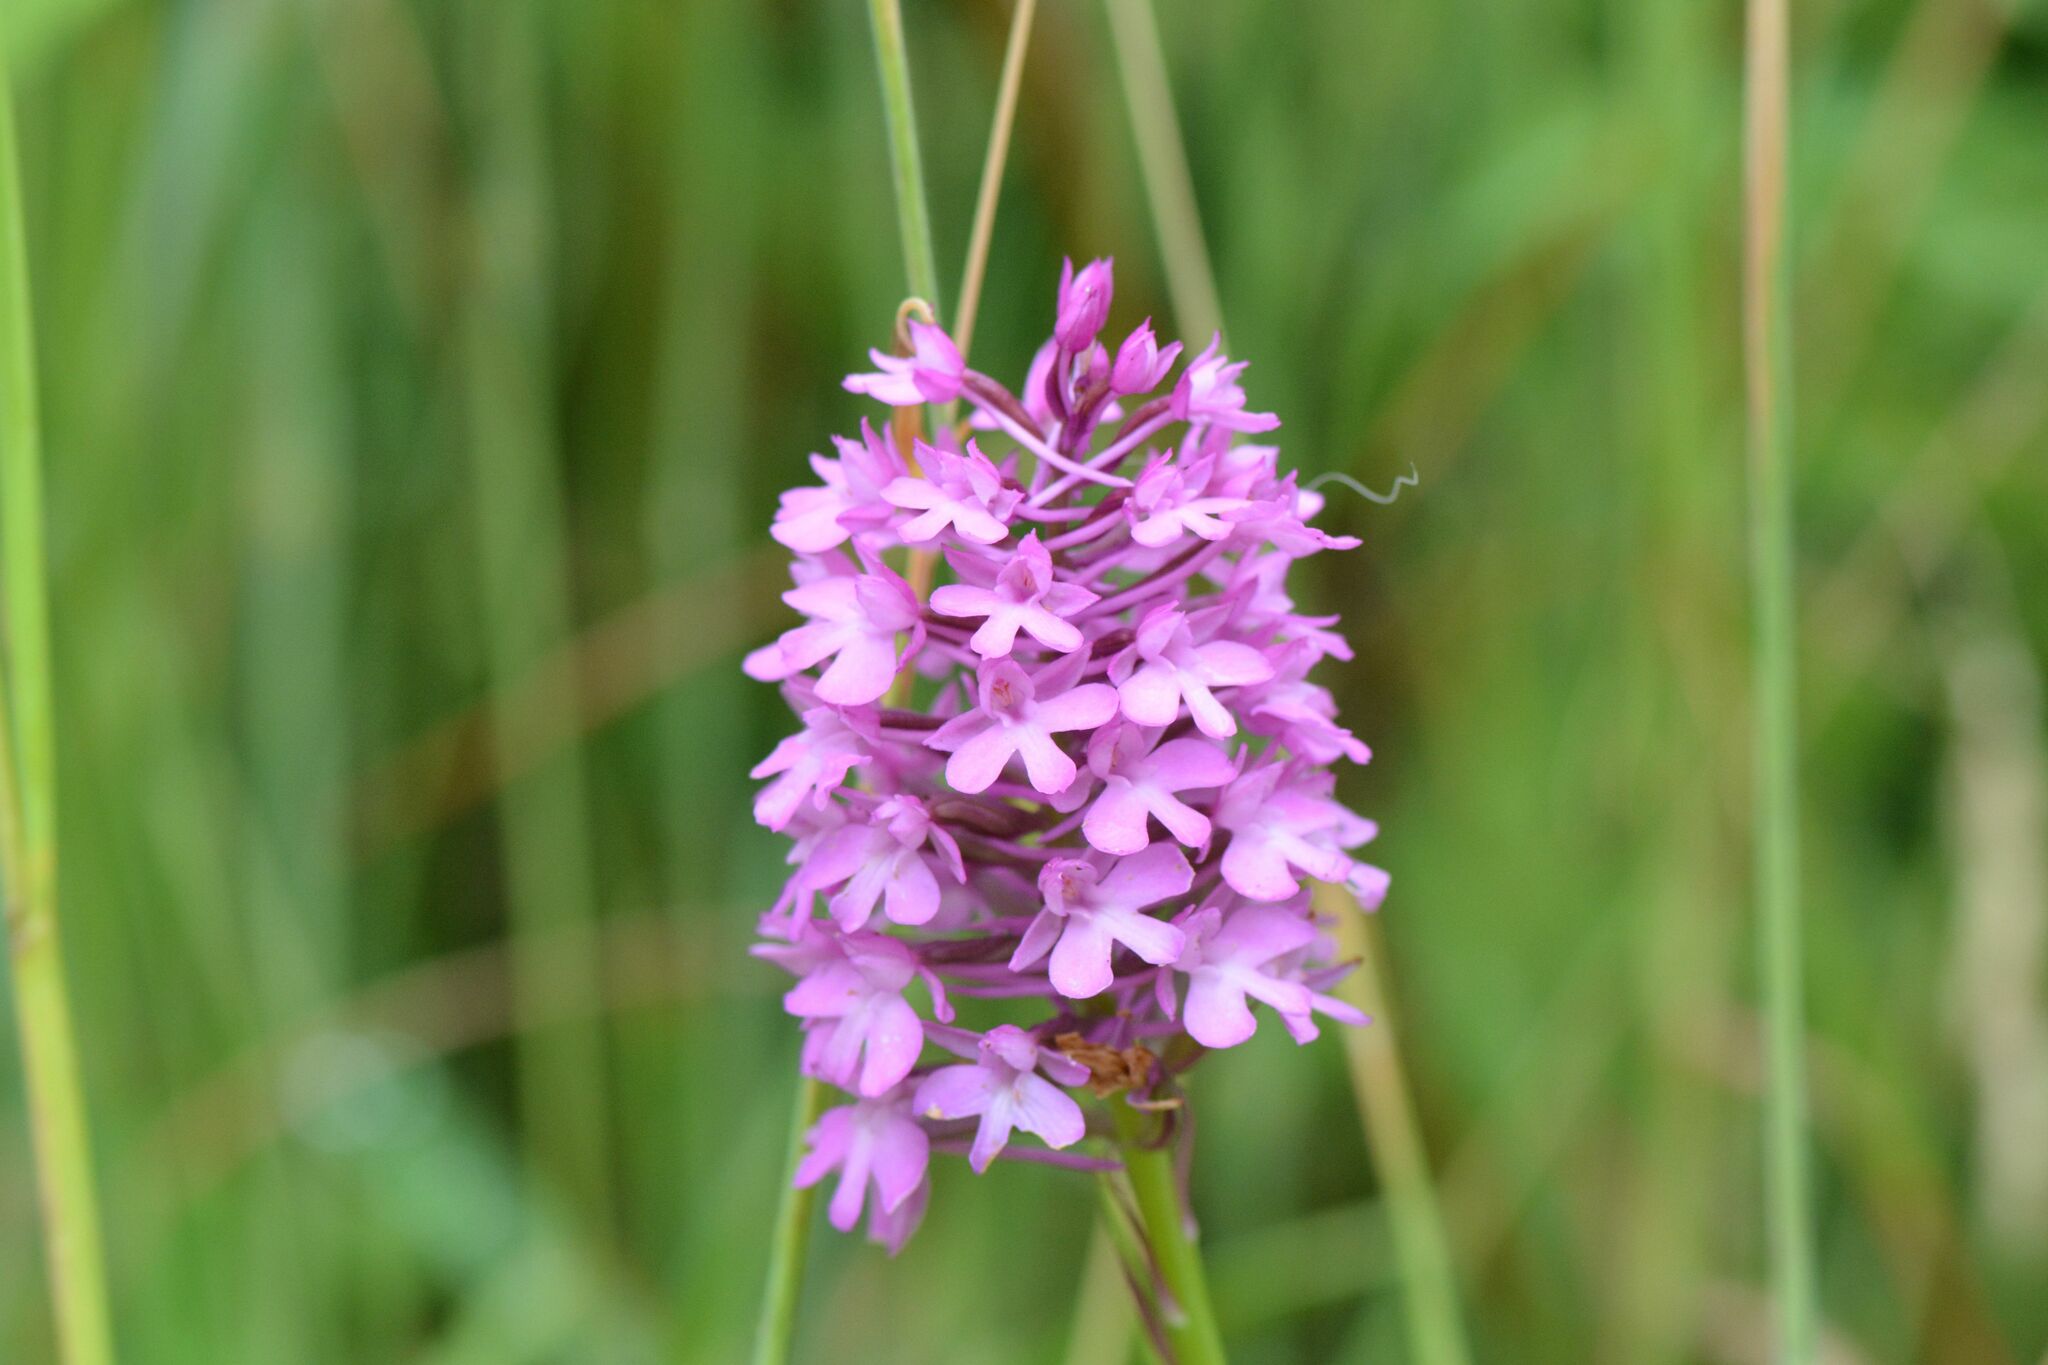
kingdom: Plantae
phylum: Tracheophyta
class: Liliopsida
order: Asparagales
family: Orchidaceae
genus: Anacamptis
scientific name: Anacamptis pyramidalis
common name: Pyramidal orchid
